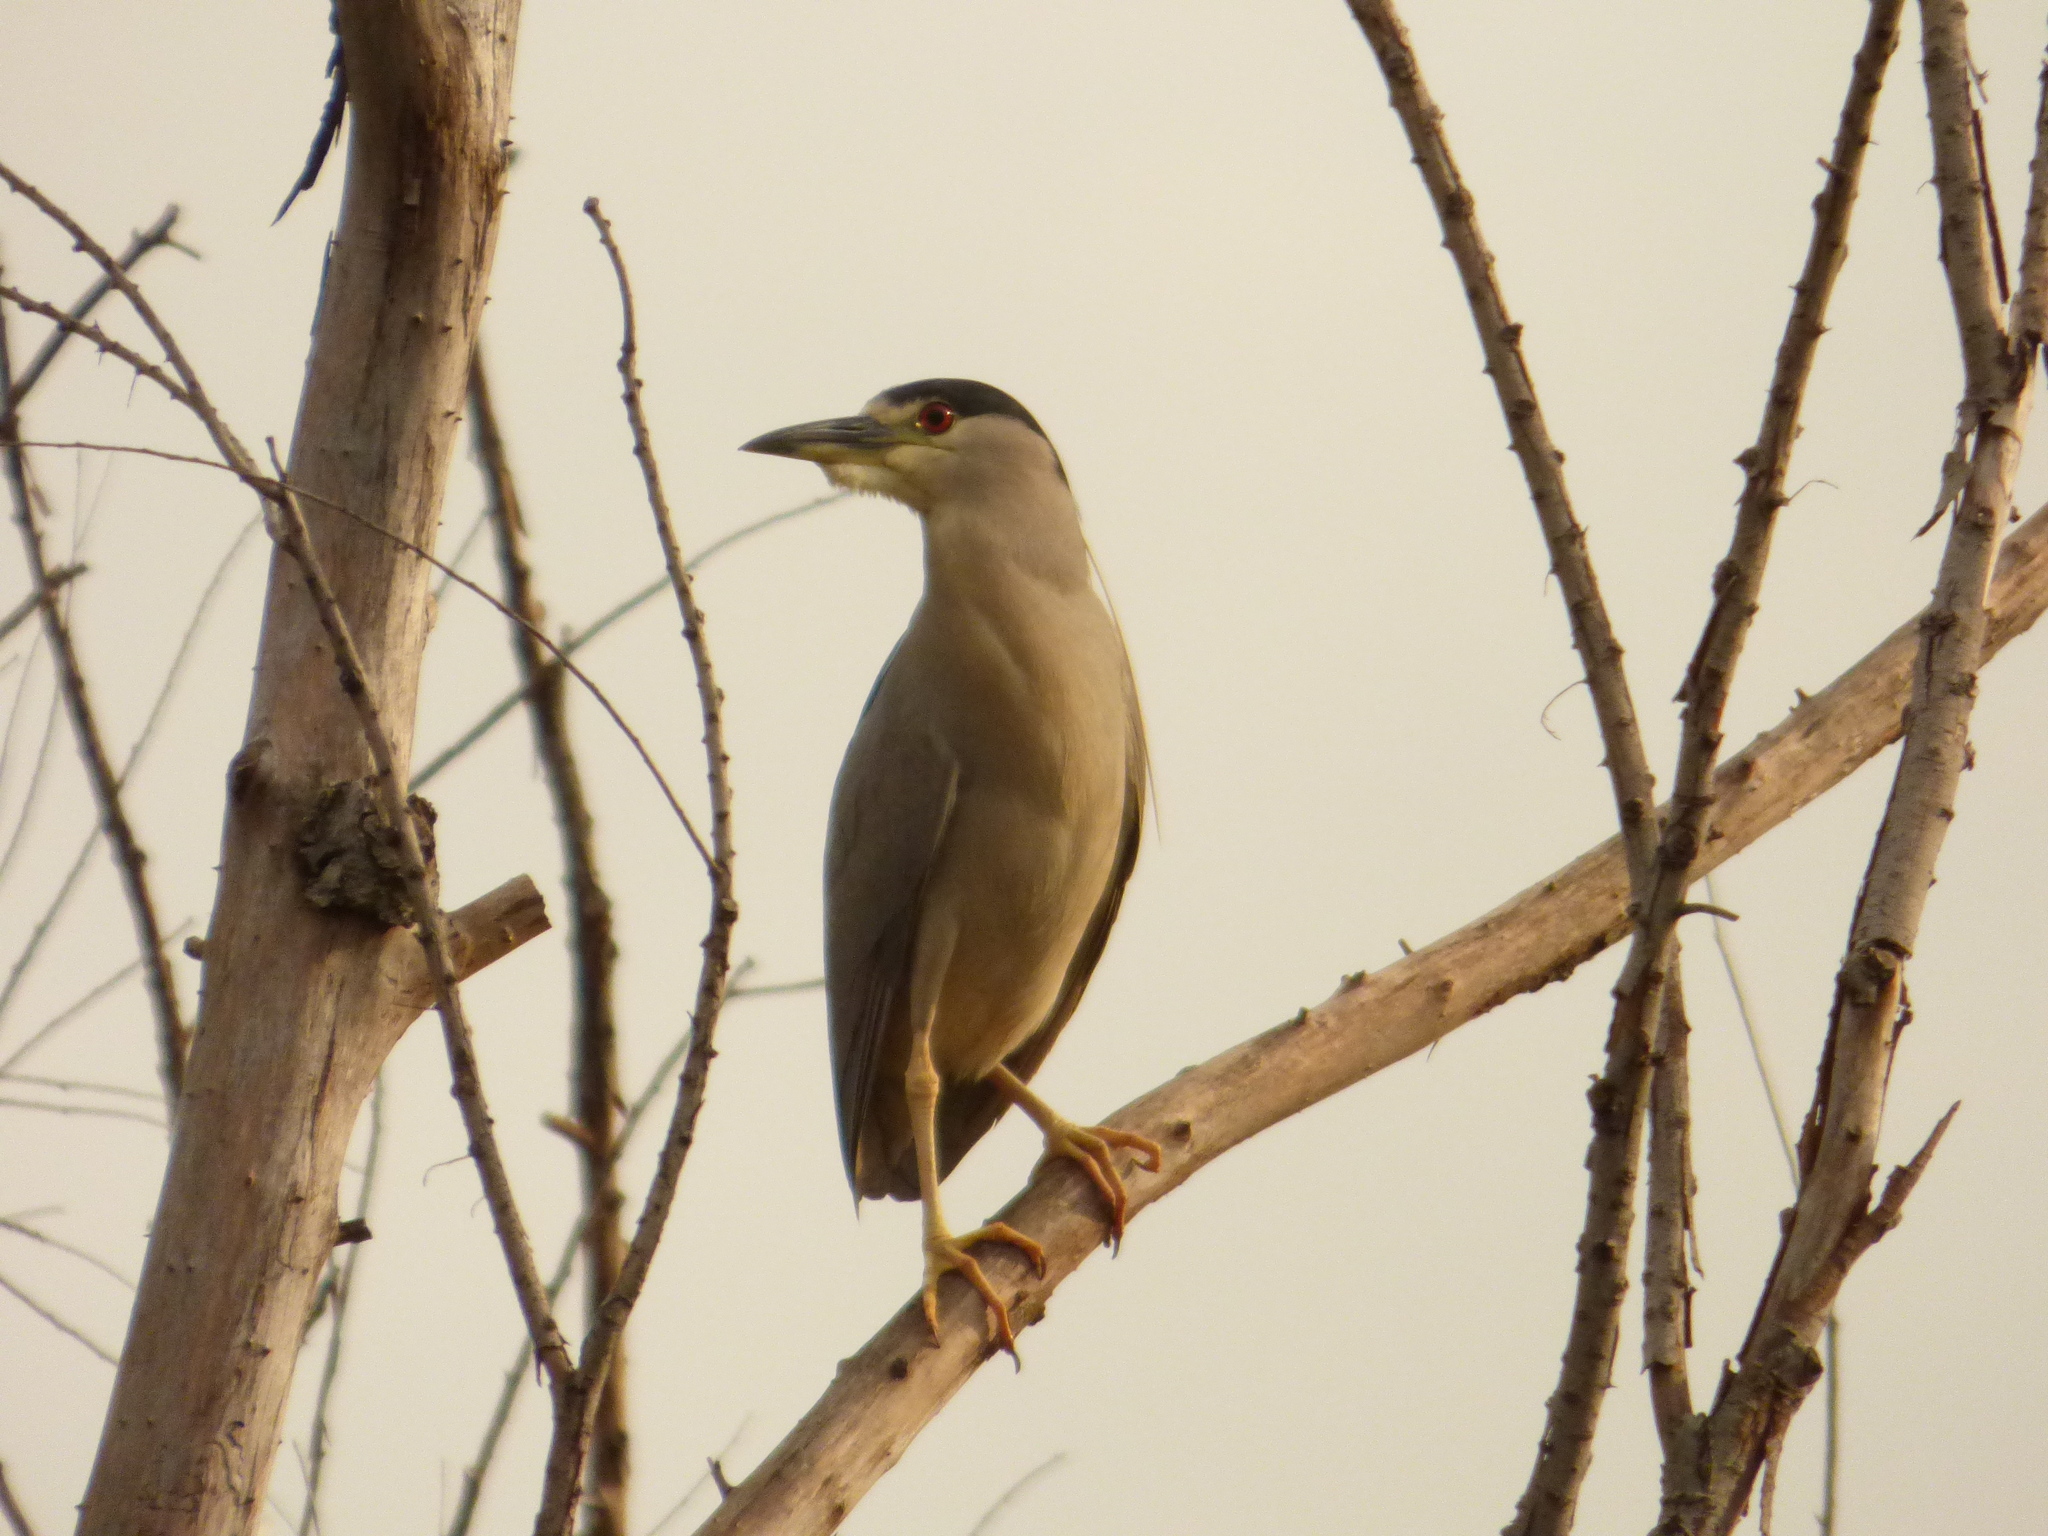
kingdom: Animalia
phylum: Chordata
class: Aves
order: Pelecaniformes
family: Ardeidae
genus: Nycticorax
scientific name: Nycticorax nycticorax
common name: Black-crowned night heron
